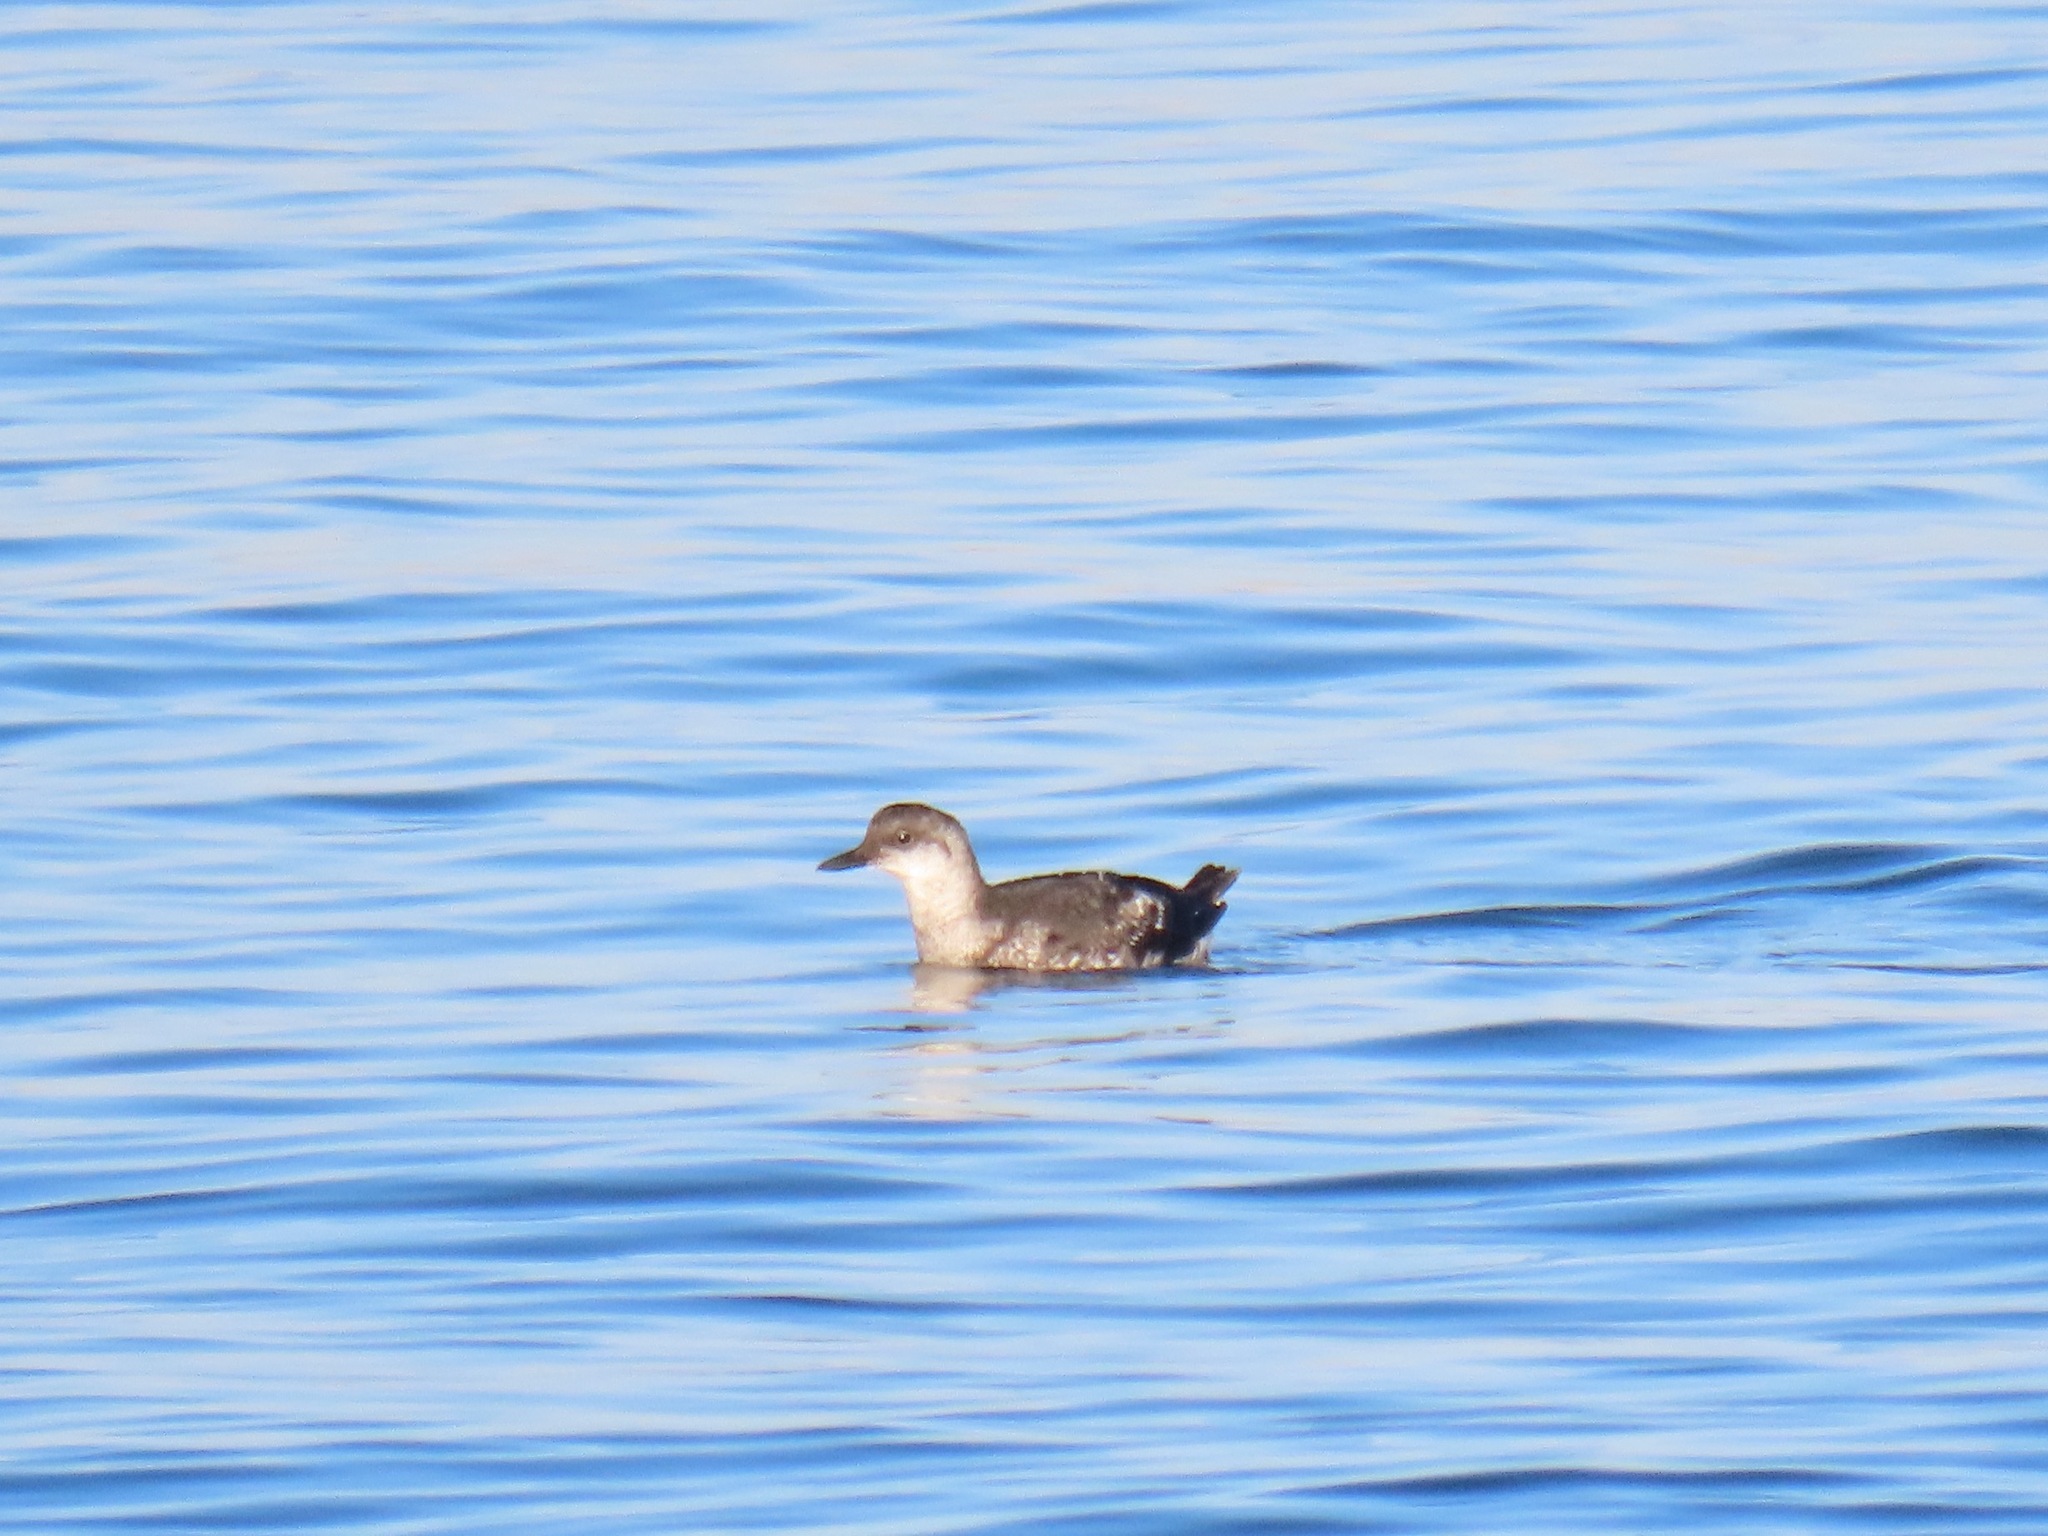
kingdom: Animalia
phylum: Chordata
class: Aves
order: Charadriiformes
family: Alcidae
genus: Cepphus
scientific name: Cepphus columba
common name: Pigeon guillemot
